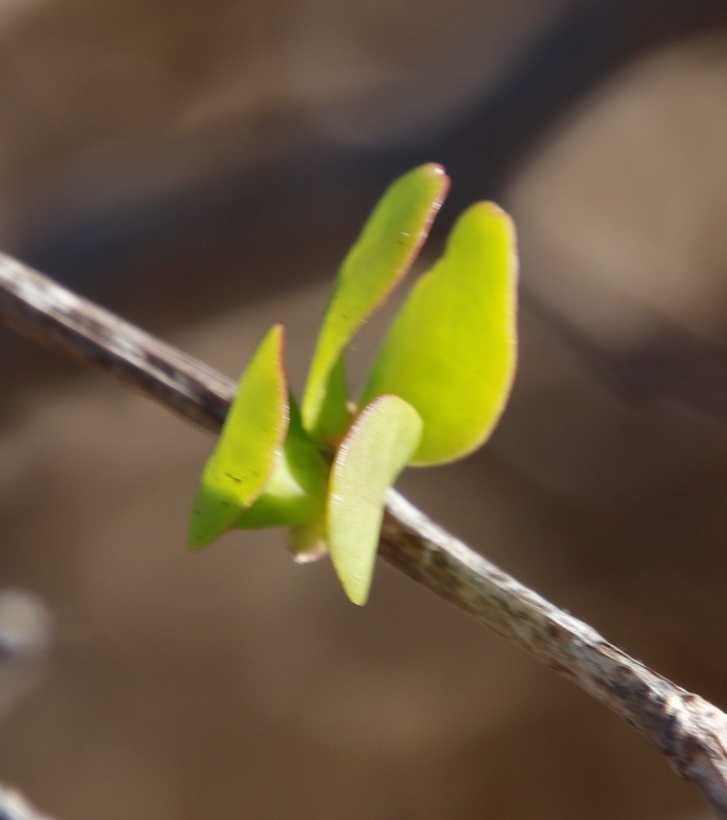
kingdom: Plantae
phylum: Tracheophyta
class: Magnoliopsida
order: Zygophyllales
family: Zygophyllaceae
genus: Roepera
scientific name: Roepera morgsana
